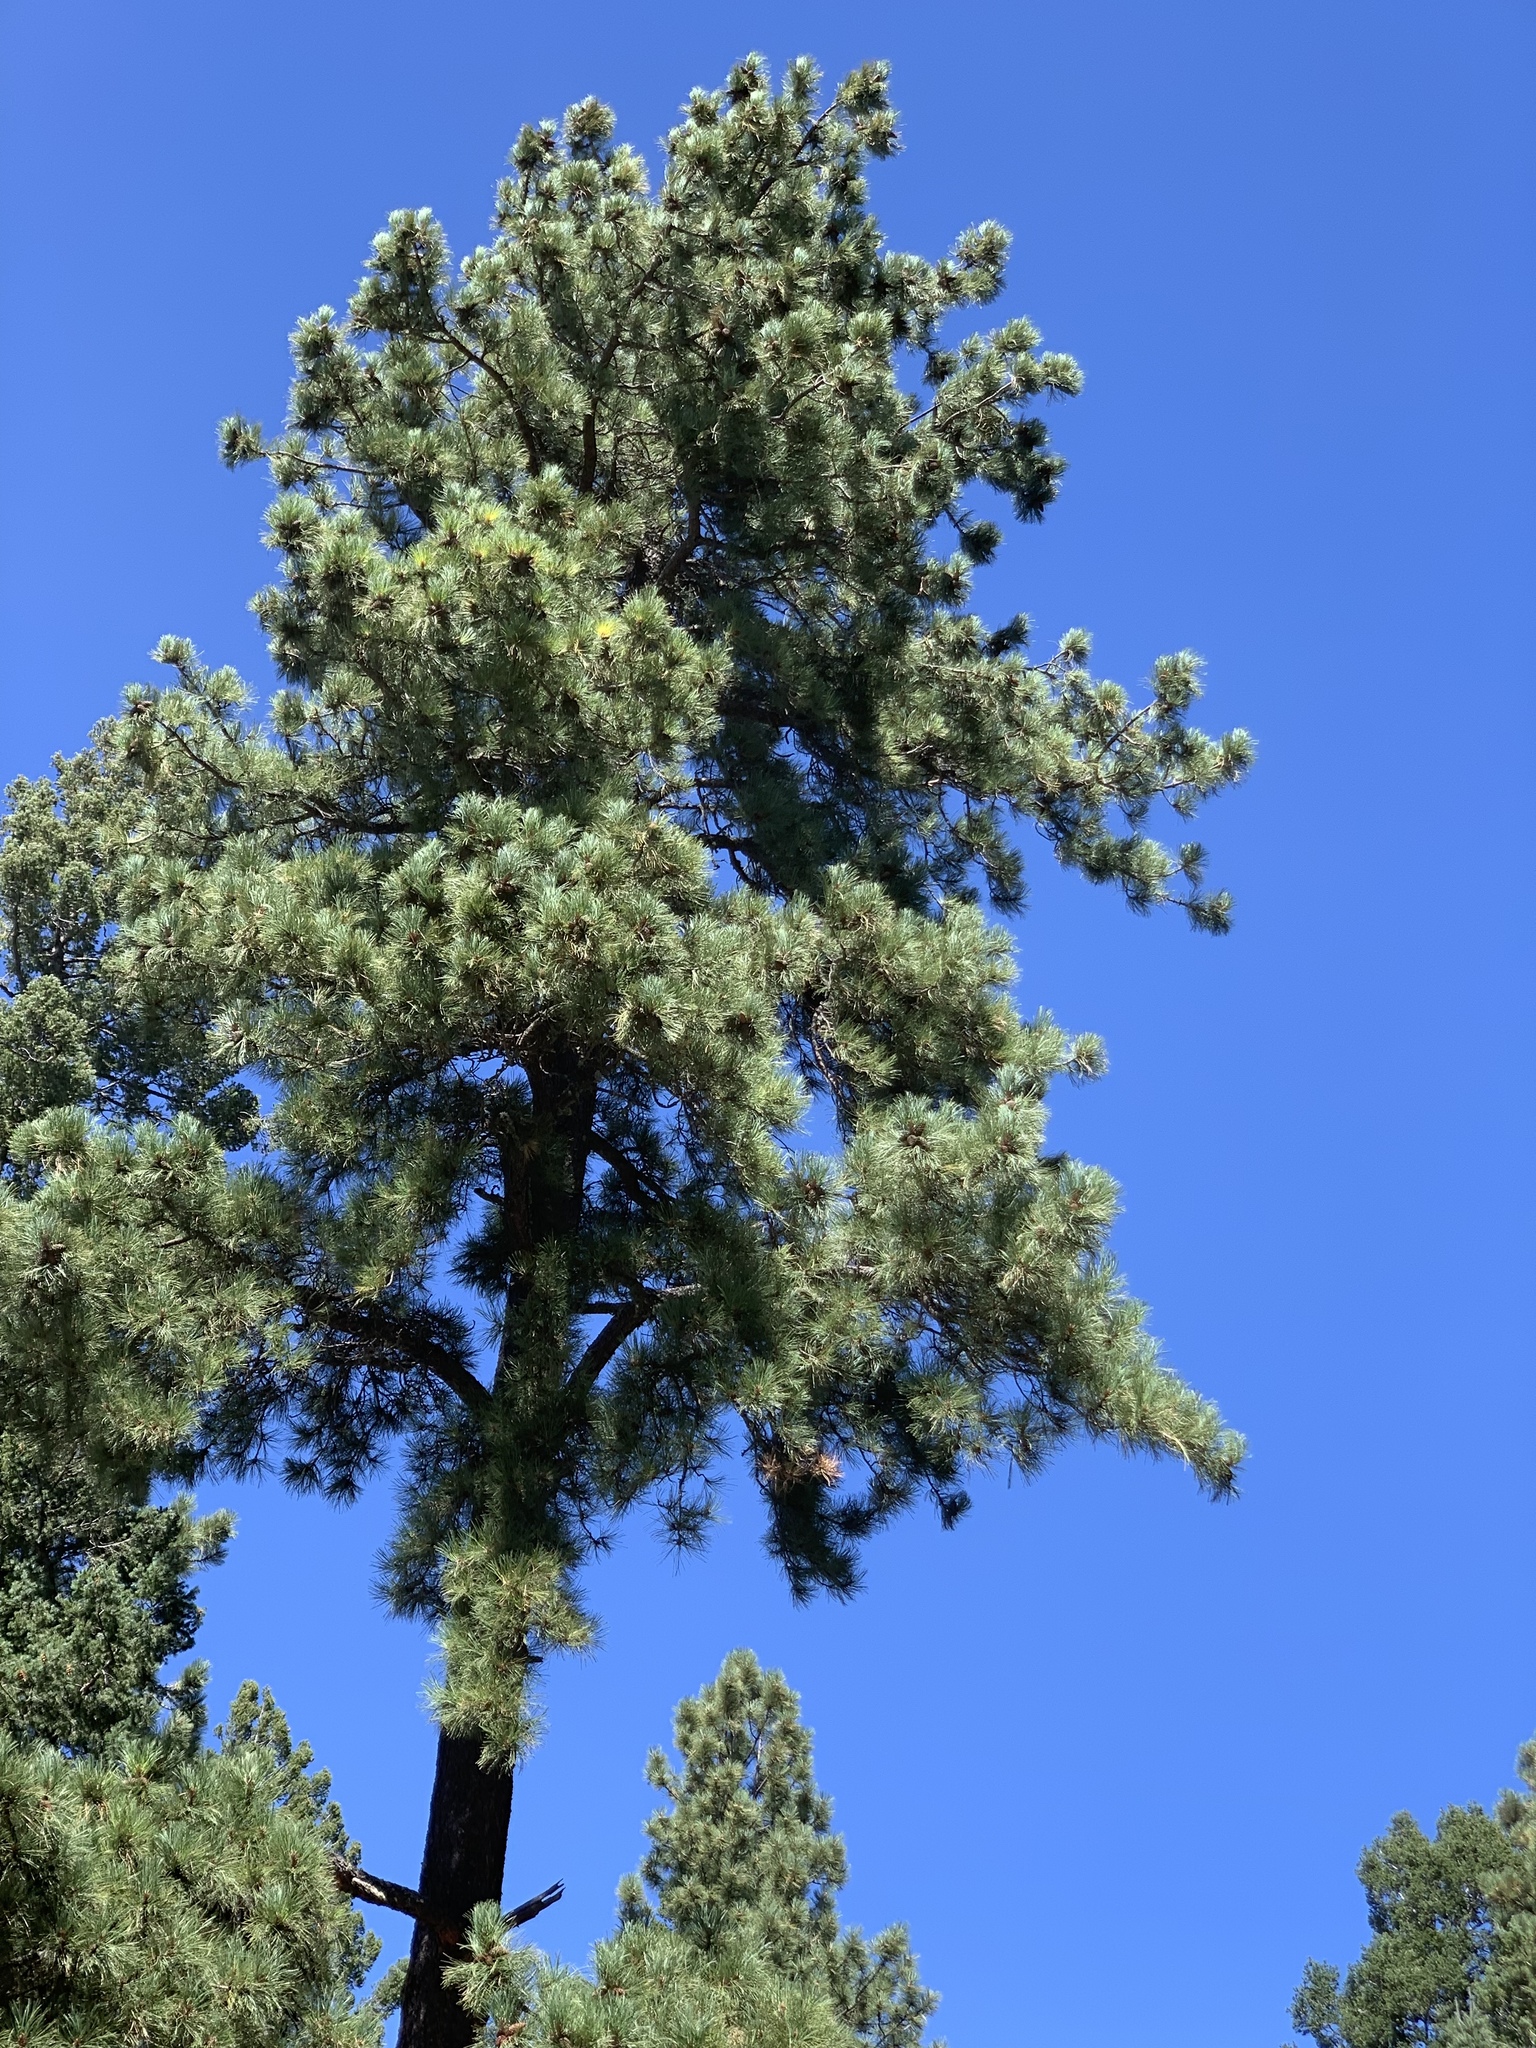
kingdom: Plantae
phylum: Tracheophyta
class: Pinopsida
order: Pinales
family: Pinaceae
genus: Pinus
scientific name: Pinus ponderosa
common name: Western yellow-pine
